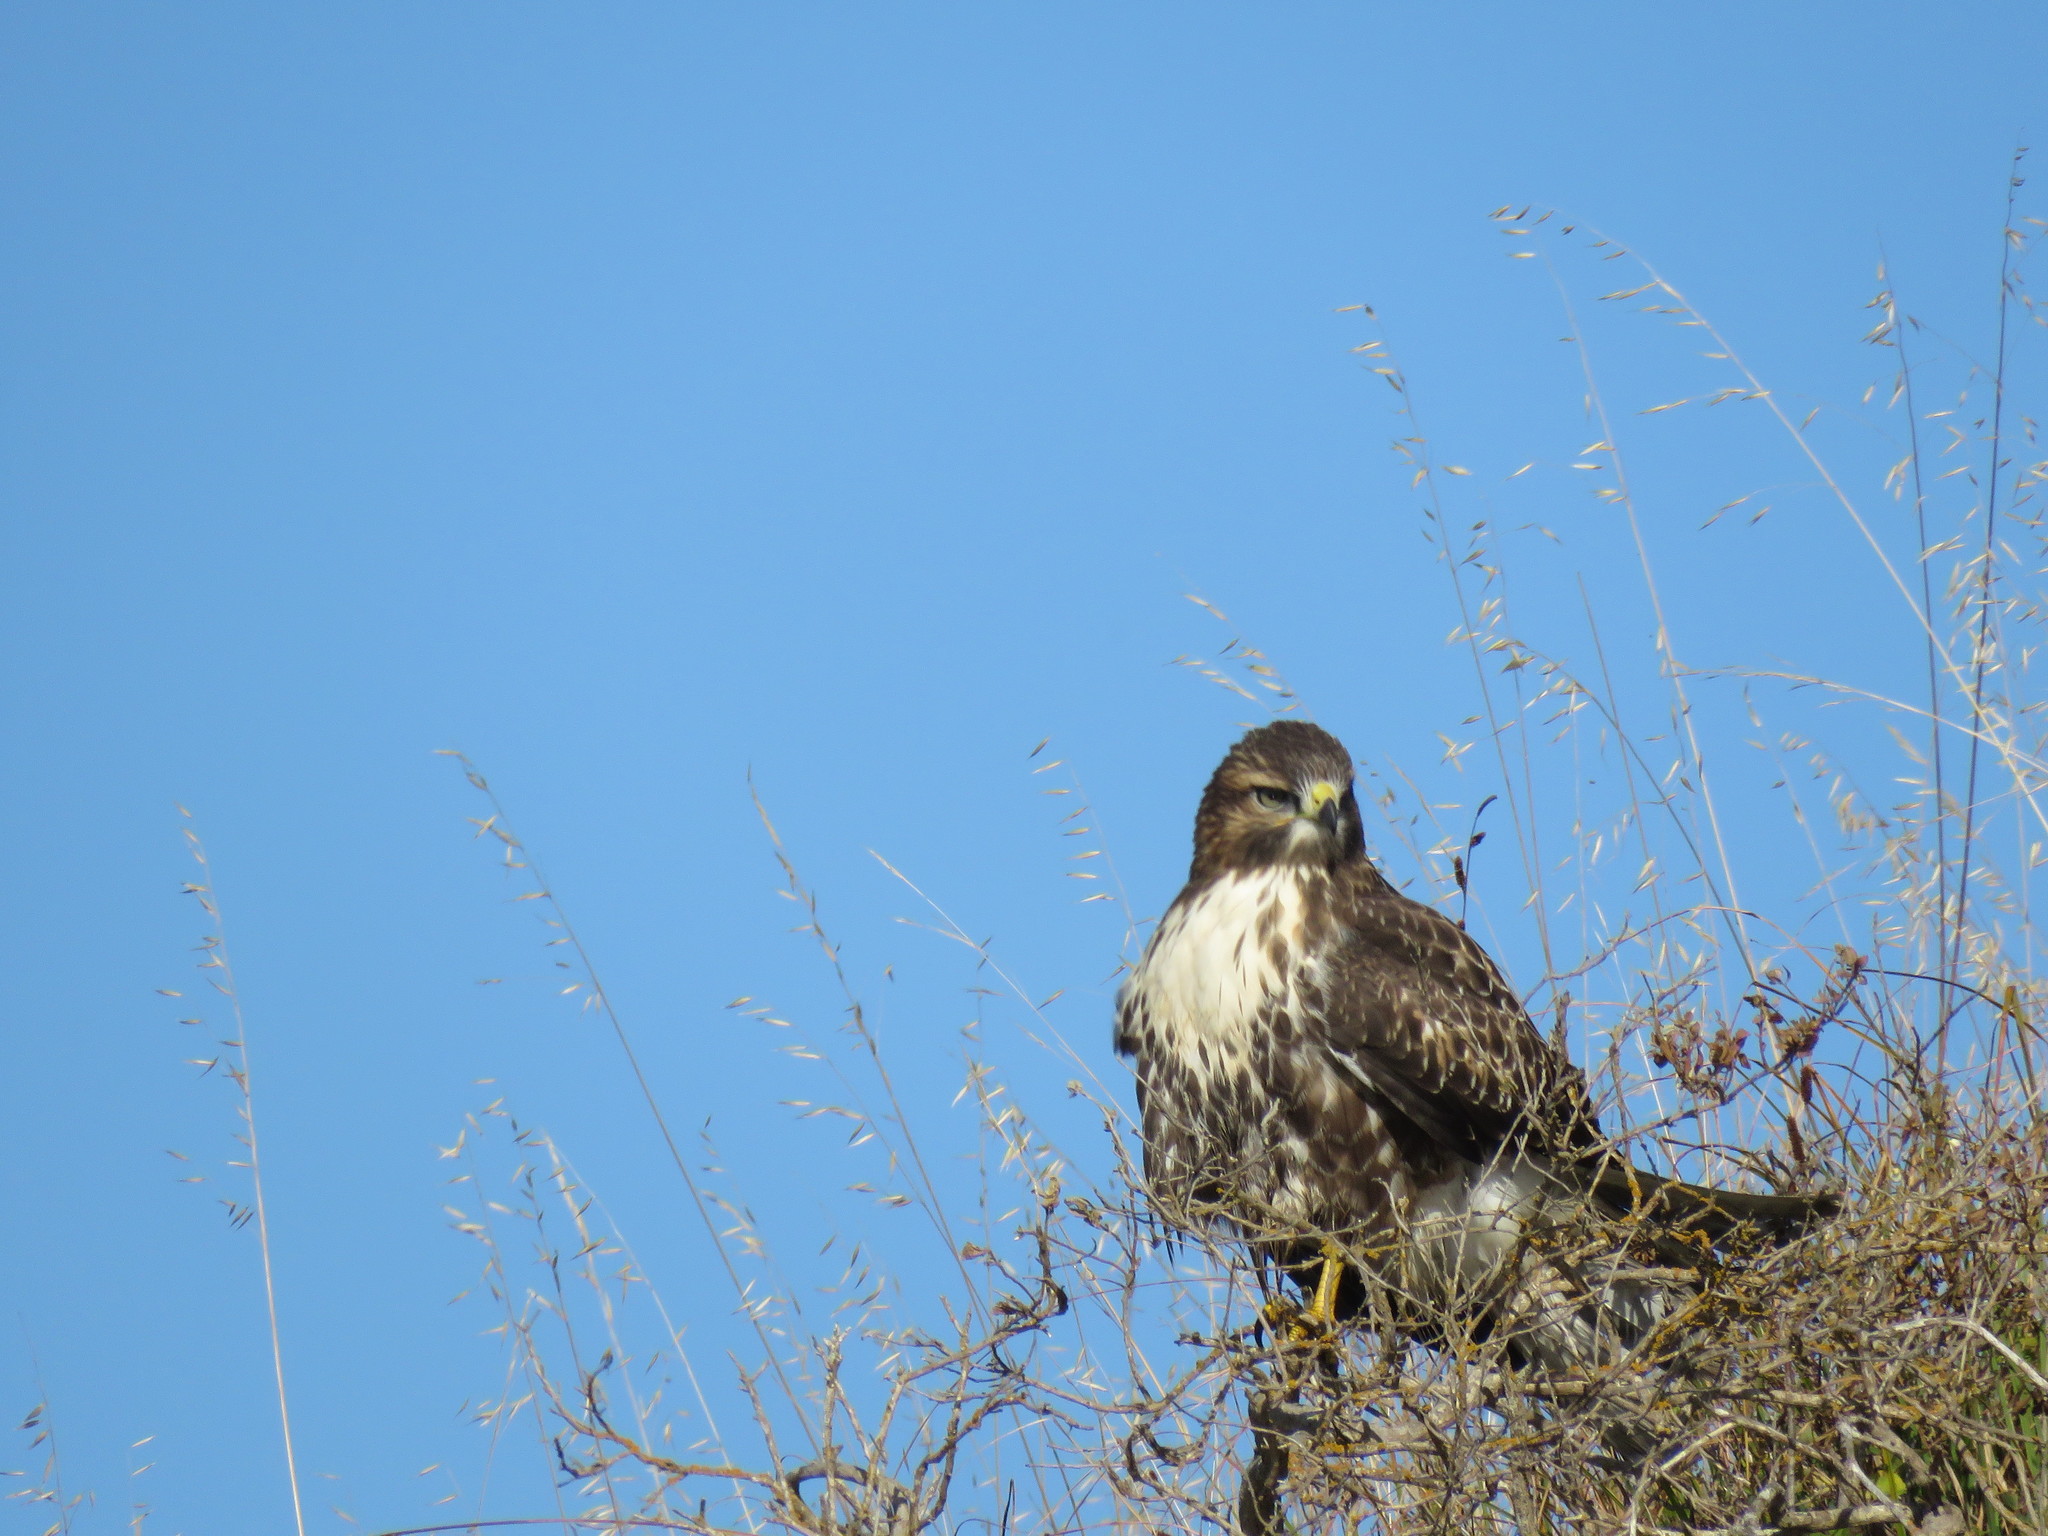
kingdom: Animalia
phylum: Chordata
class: Aves
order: Accipitriformes
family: Accipitridae
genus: Buteo
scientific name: Buteo jamaicensis
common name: Red-tailed hawk
